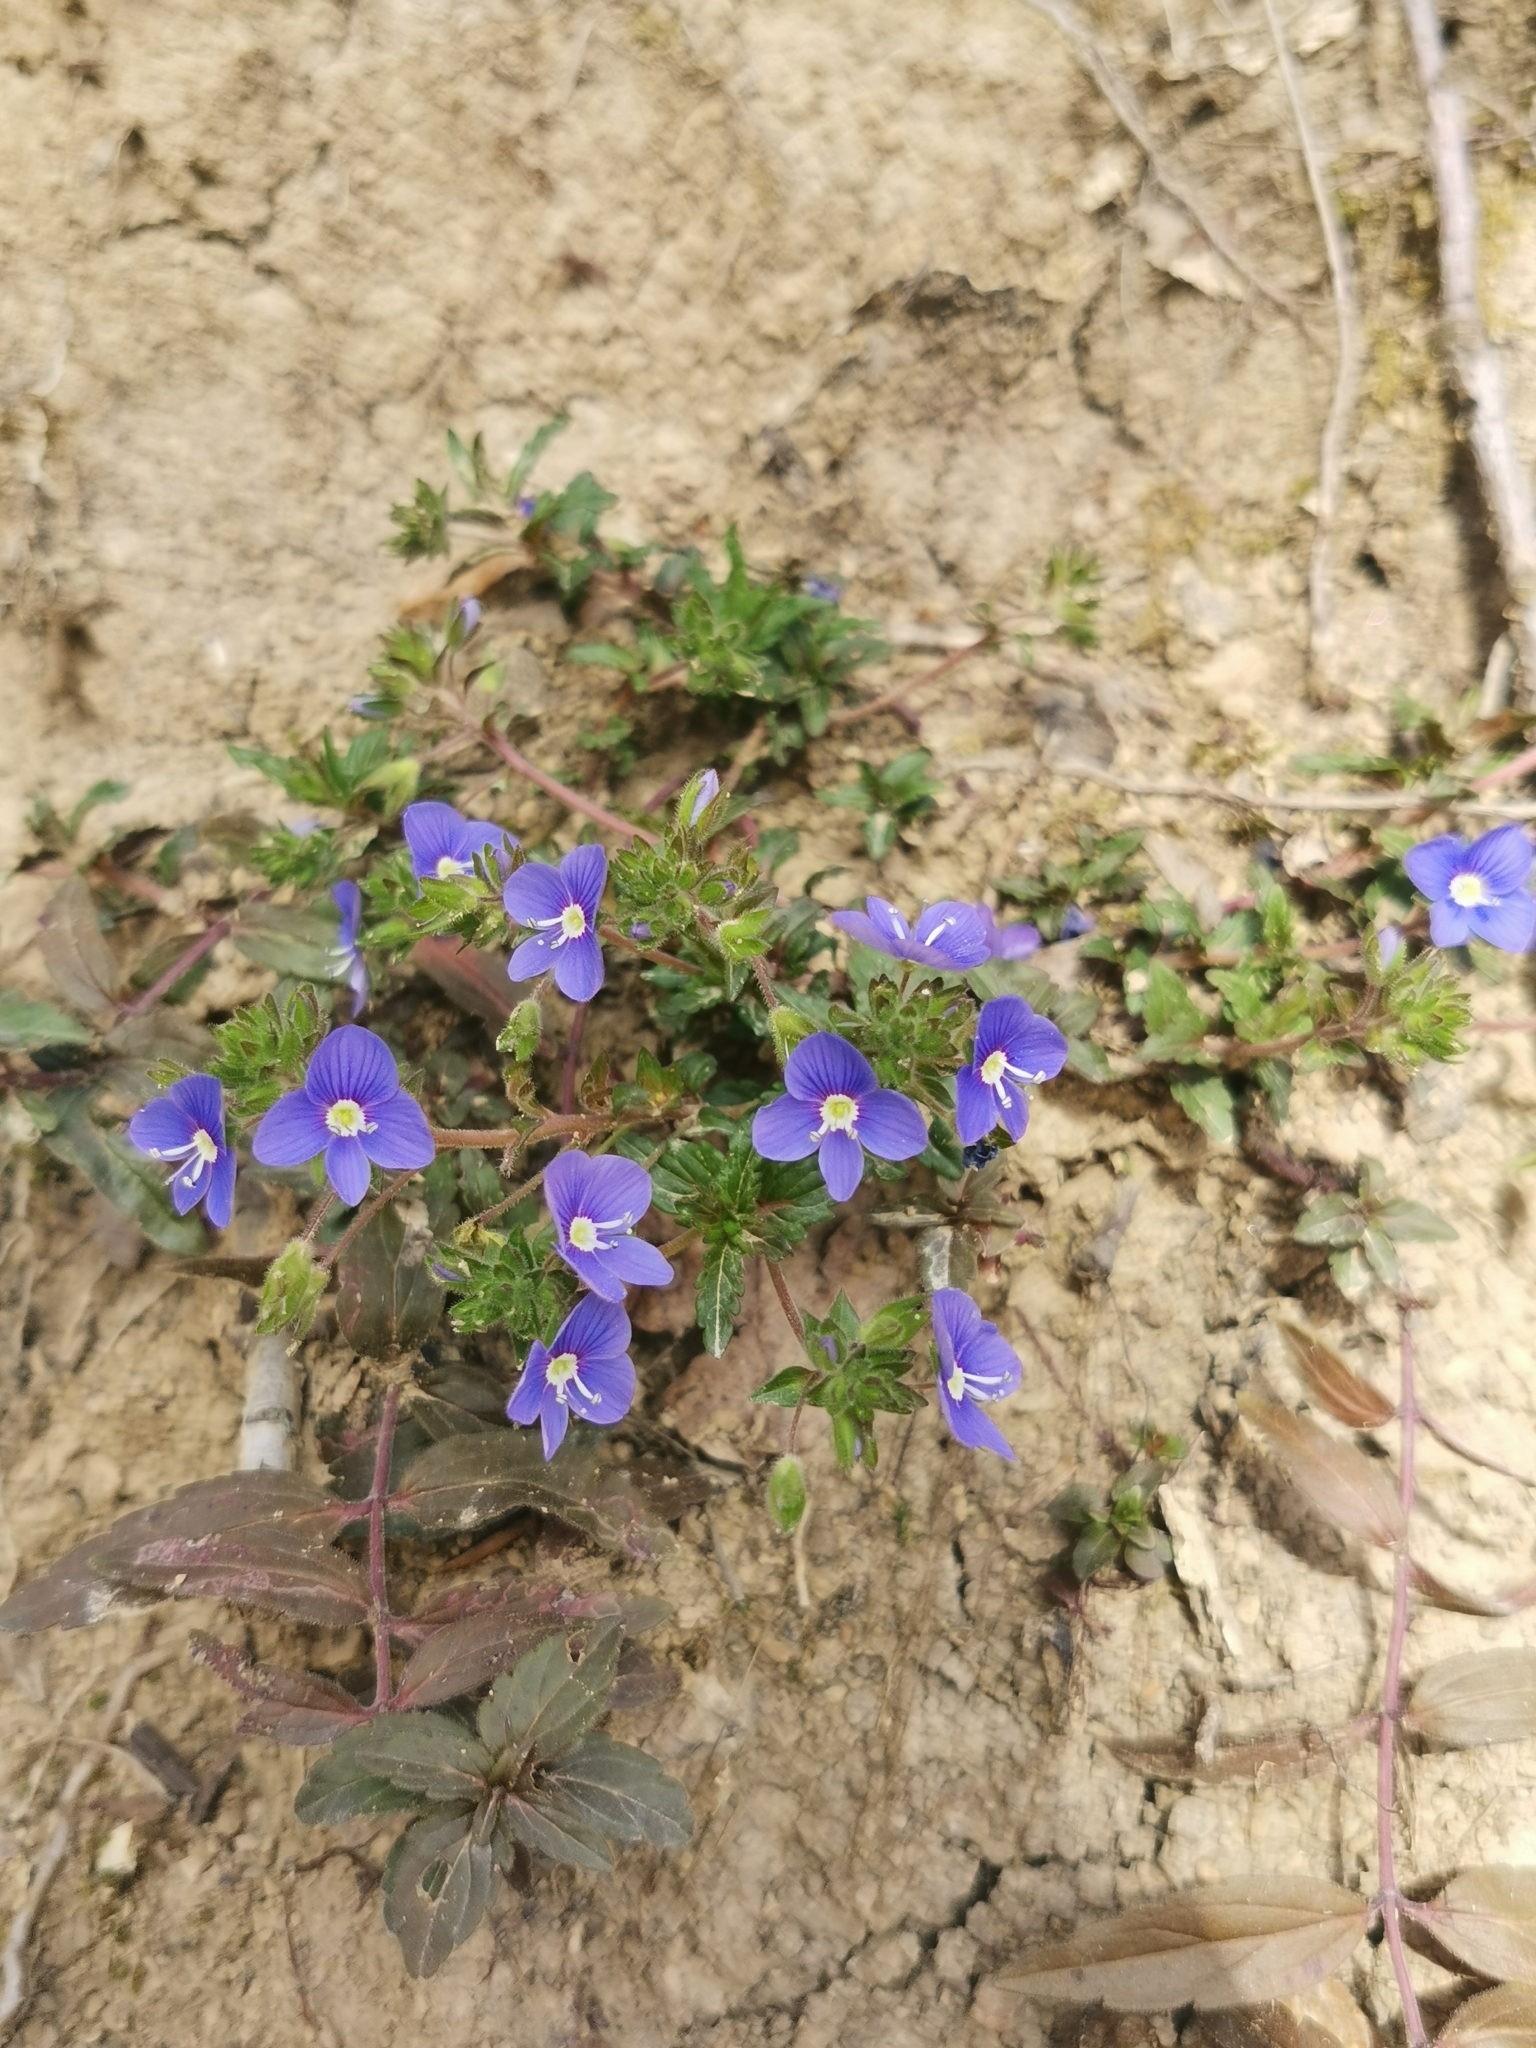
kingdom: Plantae
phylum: Tracheophyta
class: Magnoliopsida
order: Lamiales
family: Plantaginaceae
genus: Veronica
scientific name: Veronica
